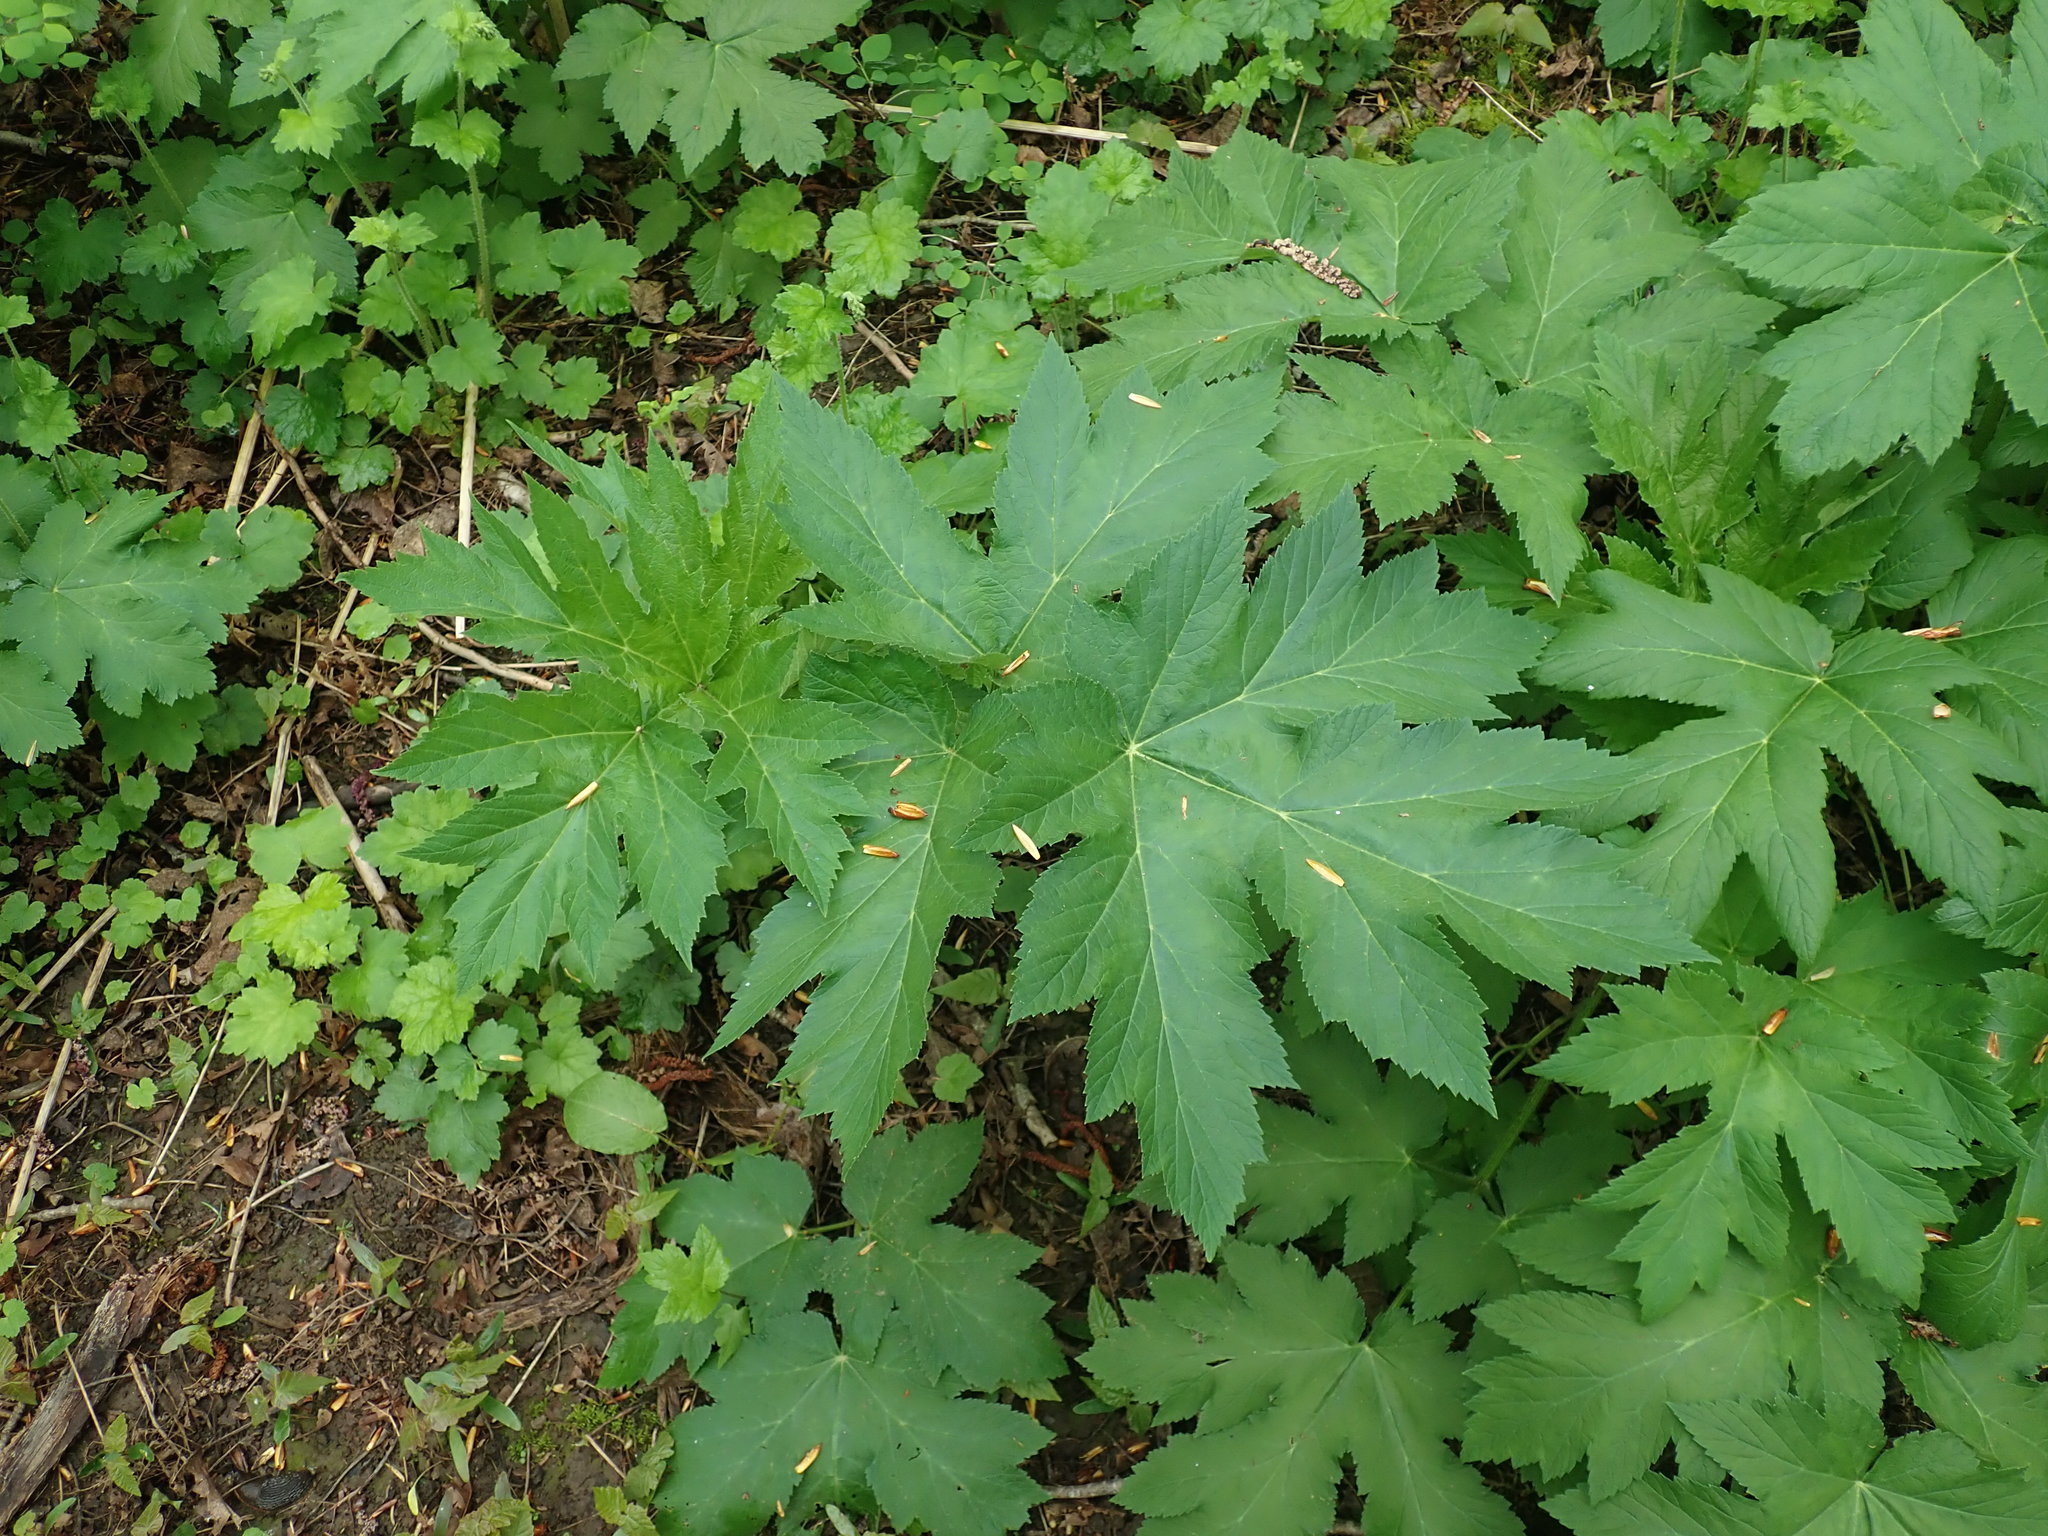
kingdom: Plantae
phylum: Tracheophyta
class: Magnoliopsida
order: Apiales
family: Apiaceae
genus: Heracleum
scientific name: Heracleum maximum
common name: American cow parsnip
